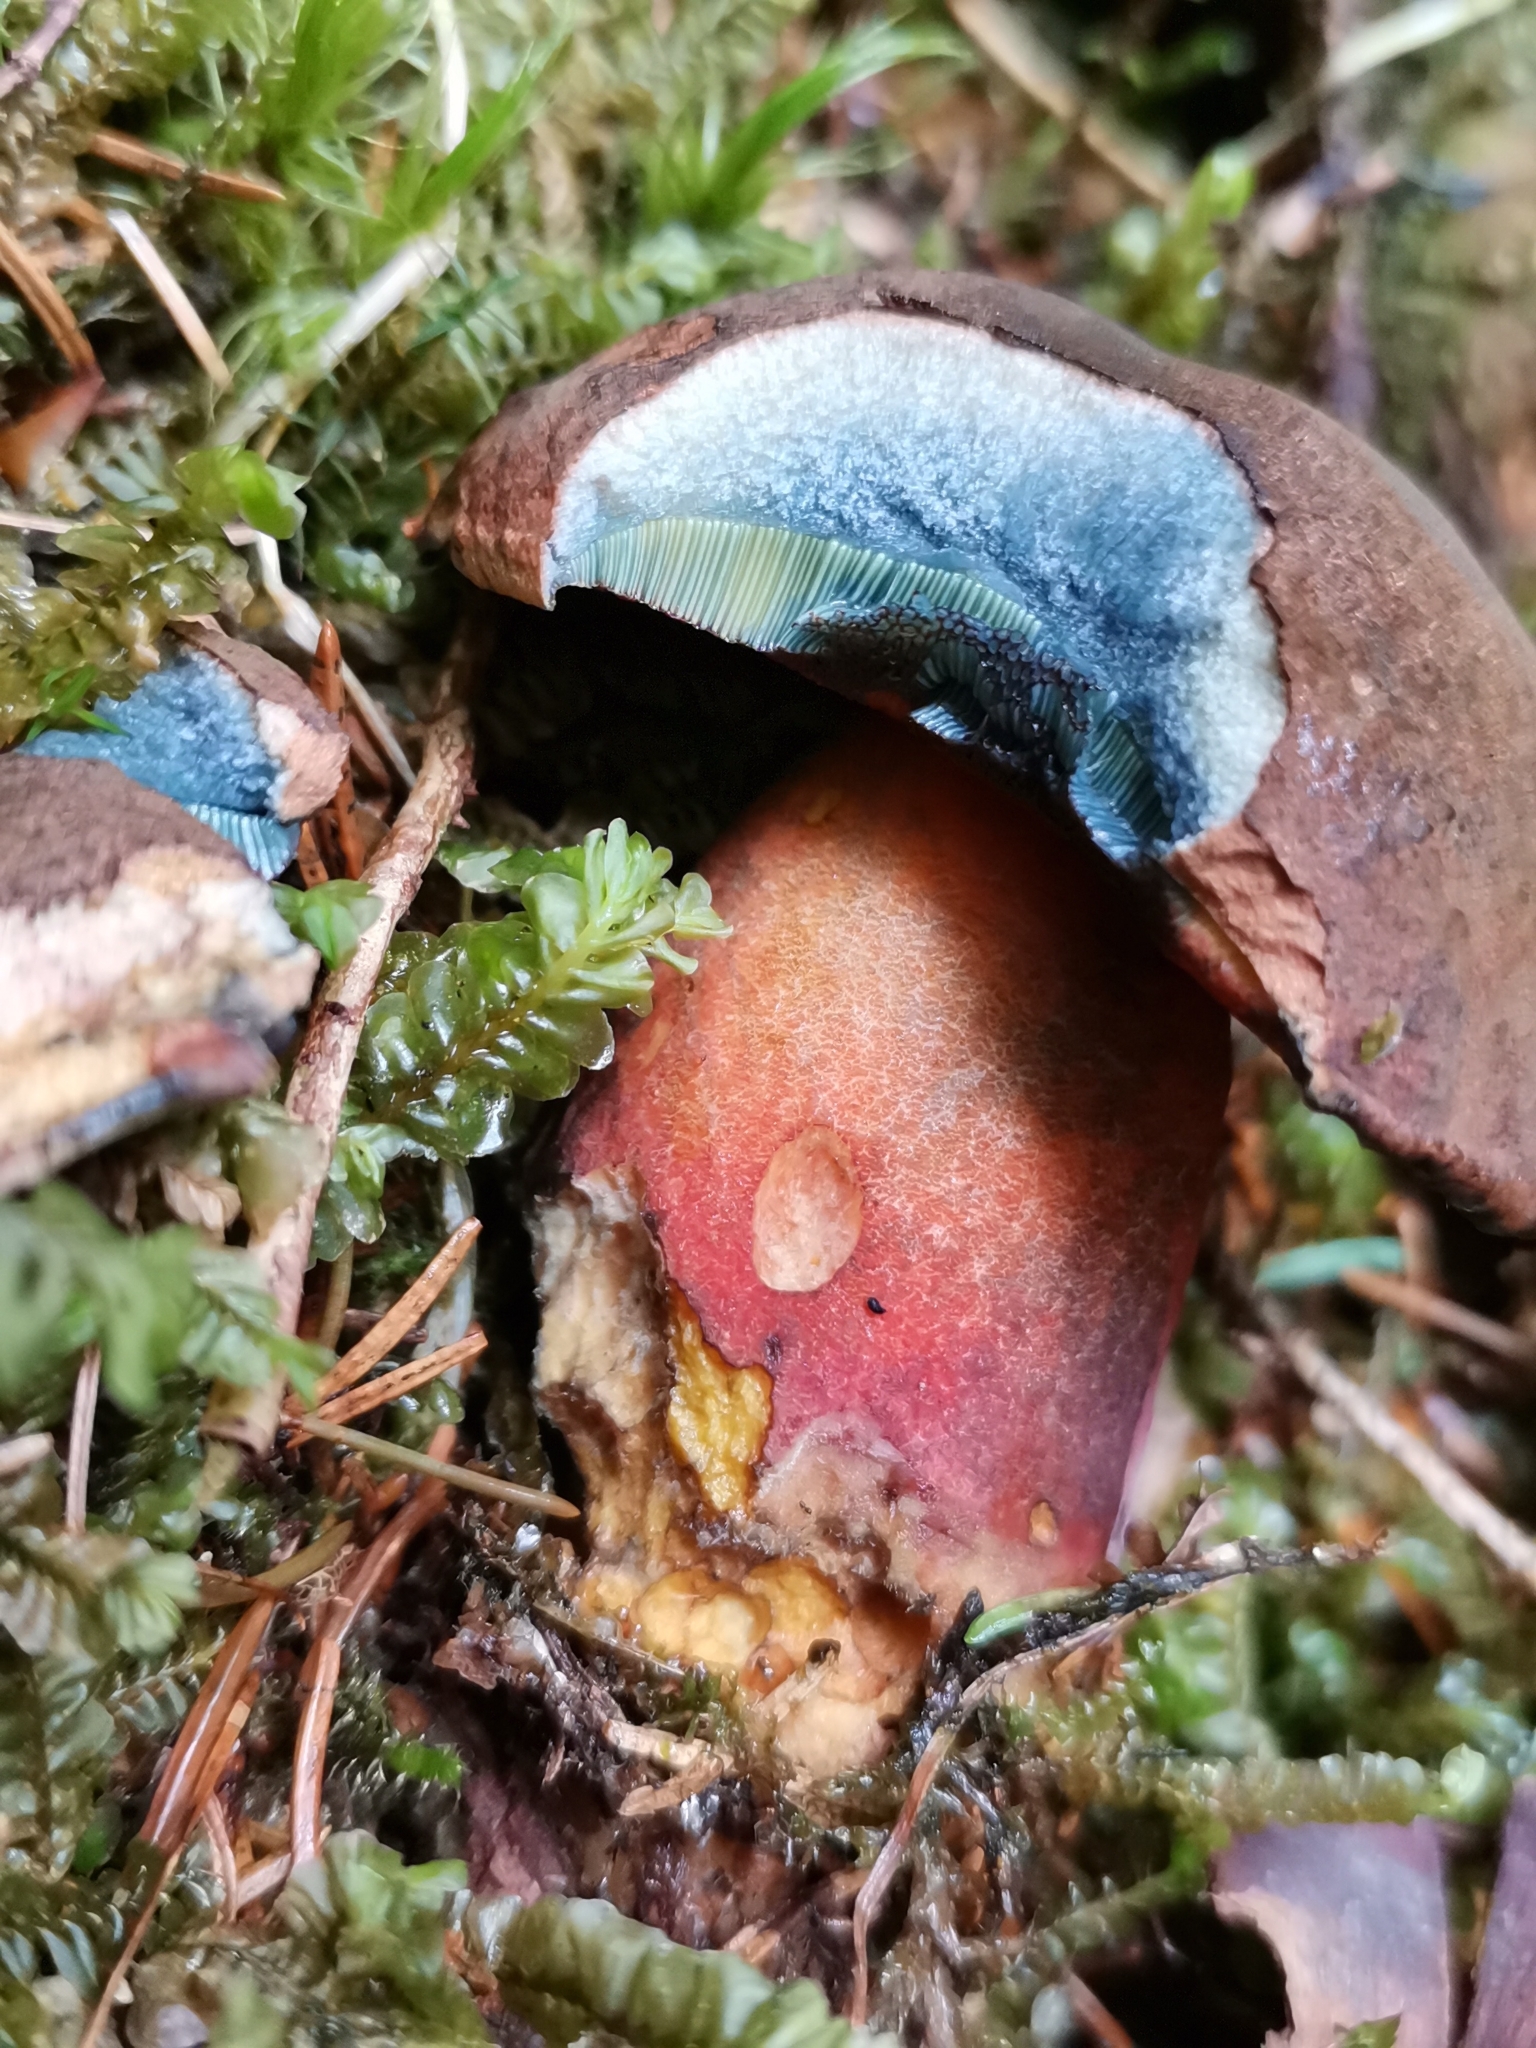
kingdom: Fungi
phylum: Basidiomycota
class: Agaricomycetes
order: Boletales
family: Boletaceae
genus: Neoboletus
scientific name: Neoboletus erythropus
